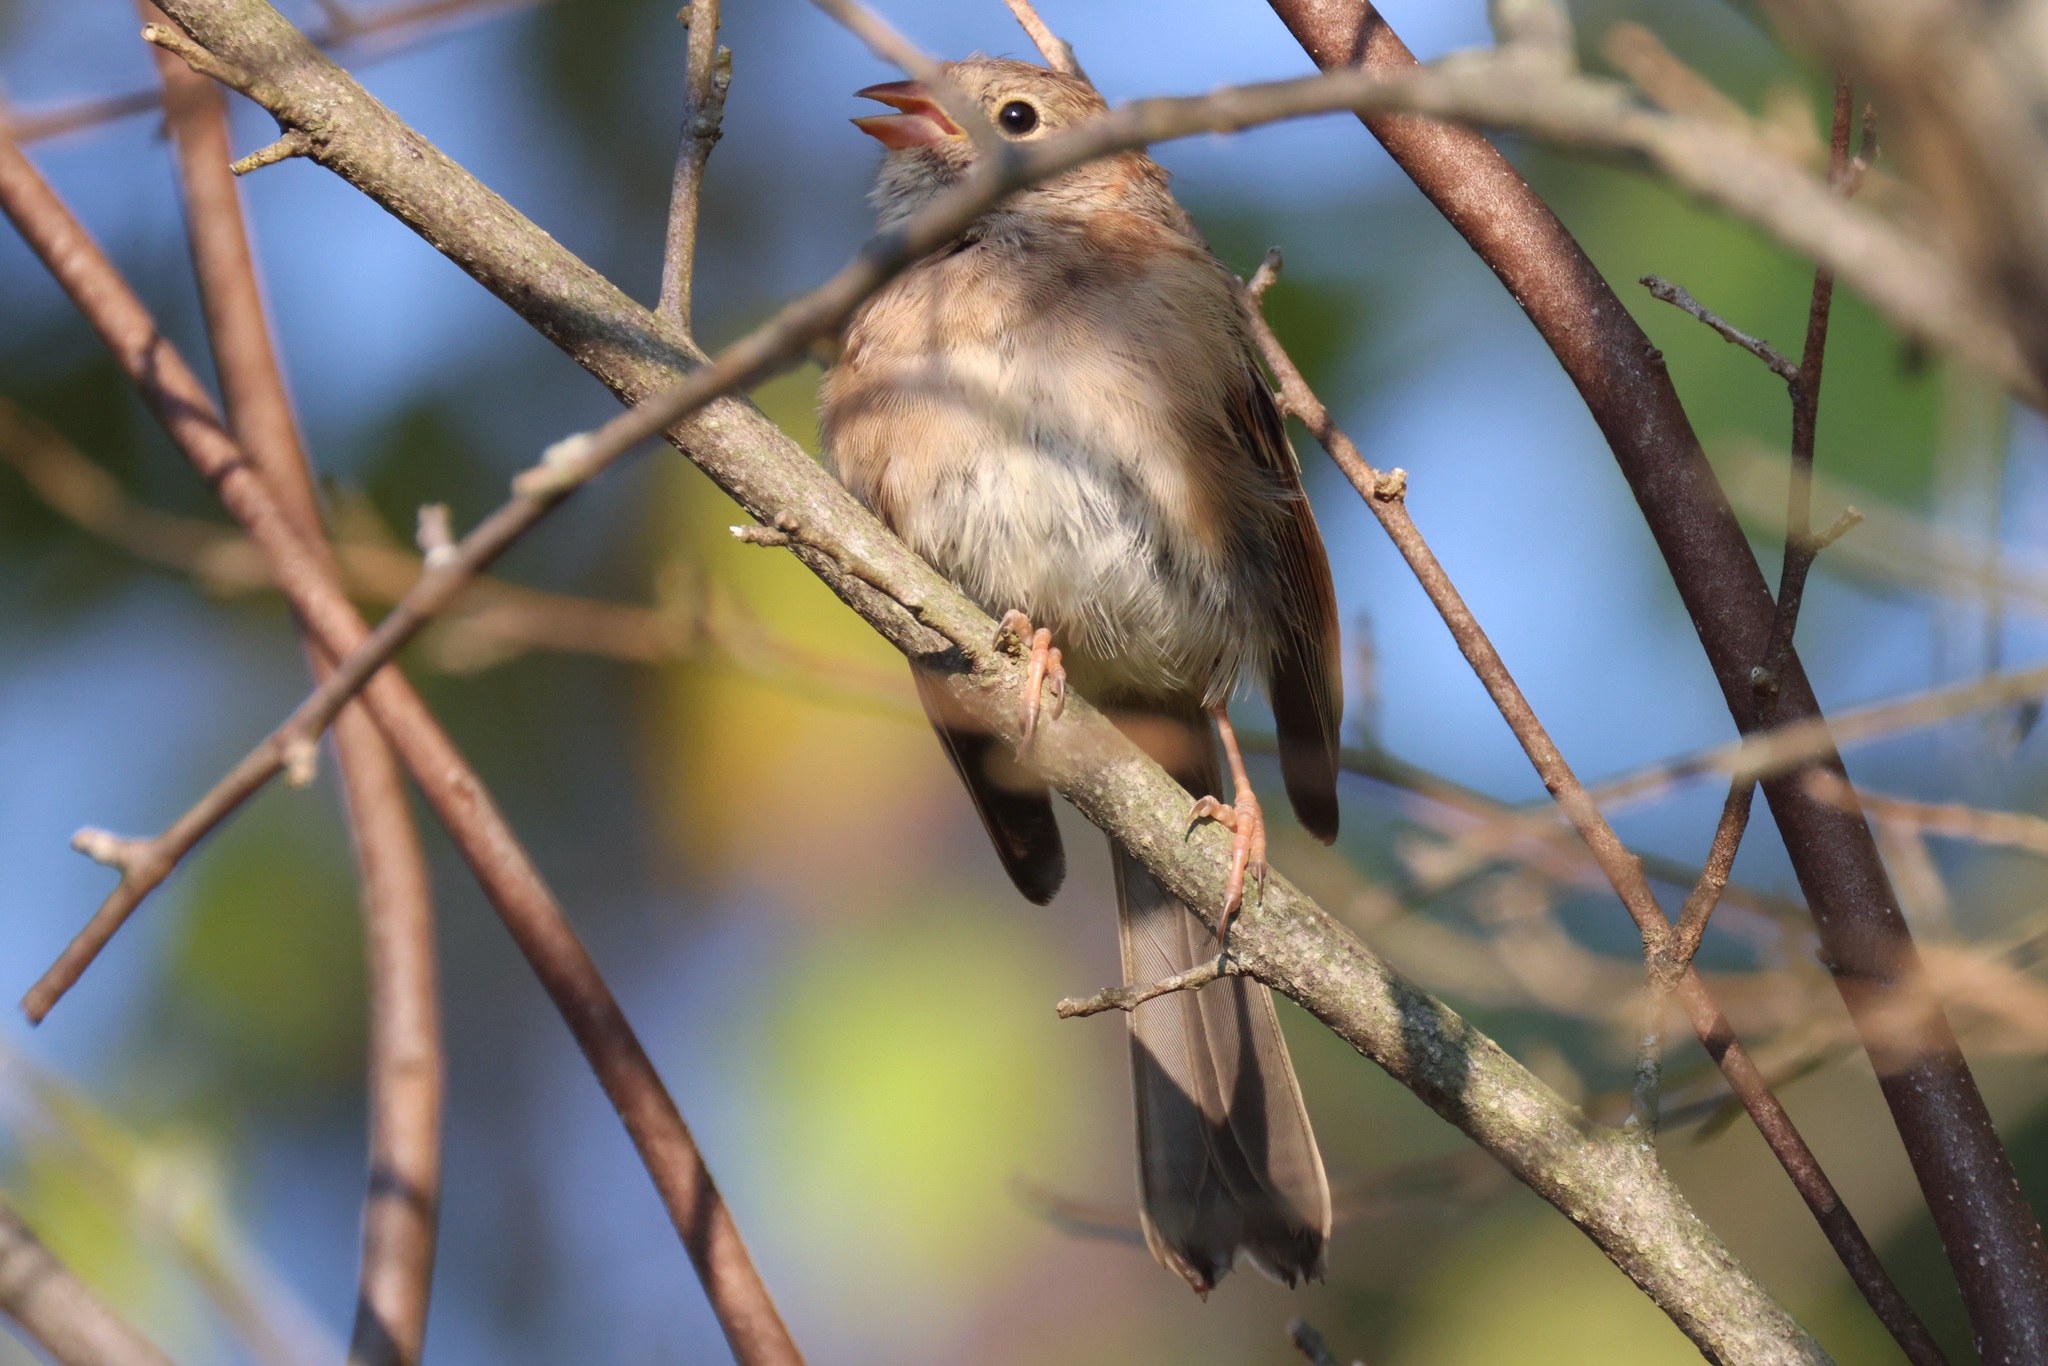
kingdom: Animalia
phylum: Chordata
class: Aves
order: Passeriformes
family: Passerellidae
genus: Spizella
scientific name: Spizella pusilla
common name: Field sparrow
